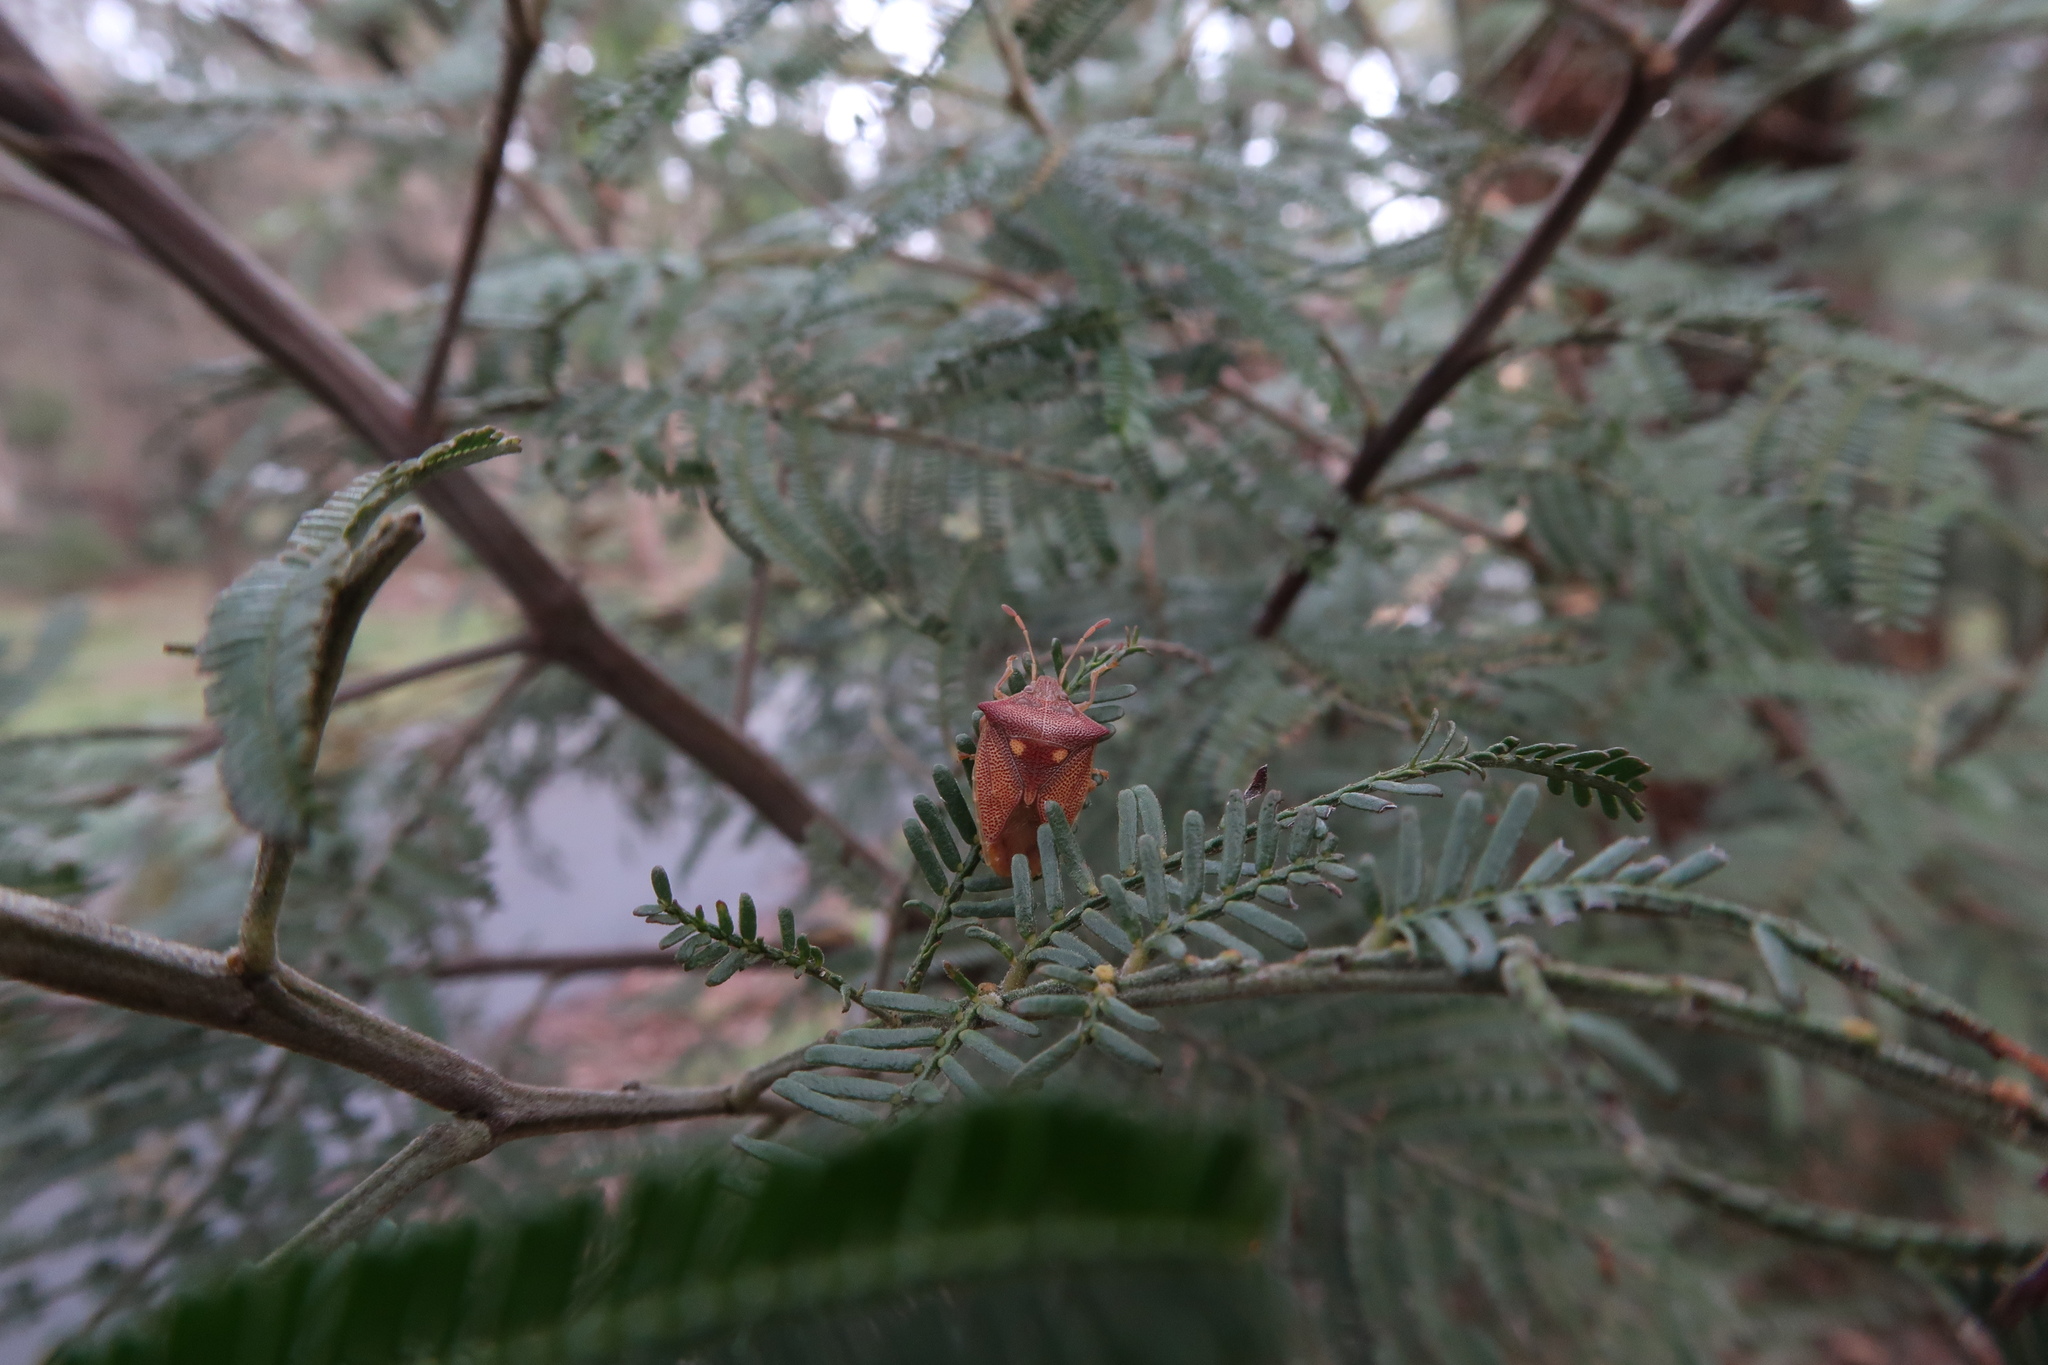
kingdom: Animalia
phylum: Arthropoda
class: Insecta
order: Hemiptera
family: Acanthosomatidae
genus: Hiarchas
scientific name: Hiarchas angularis
